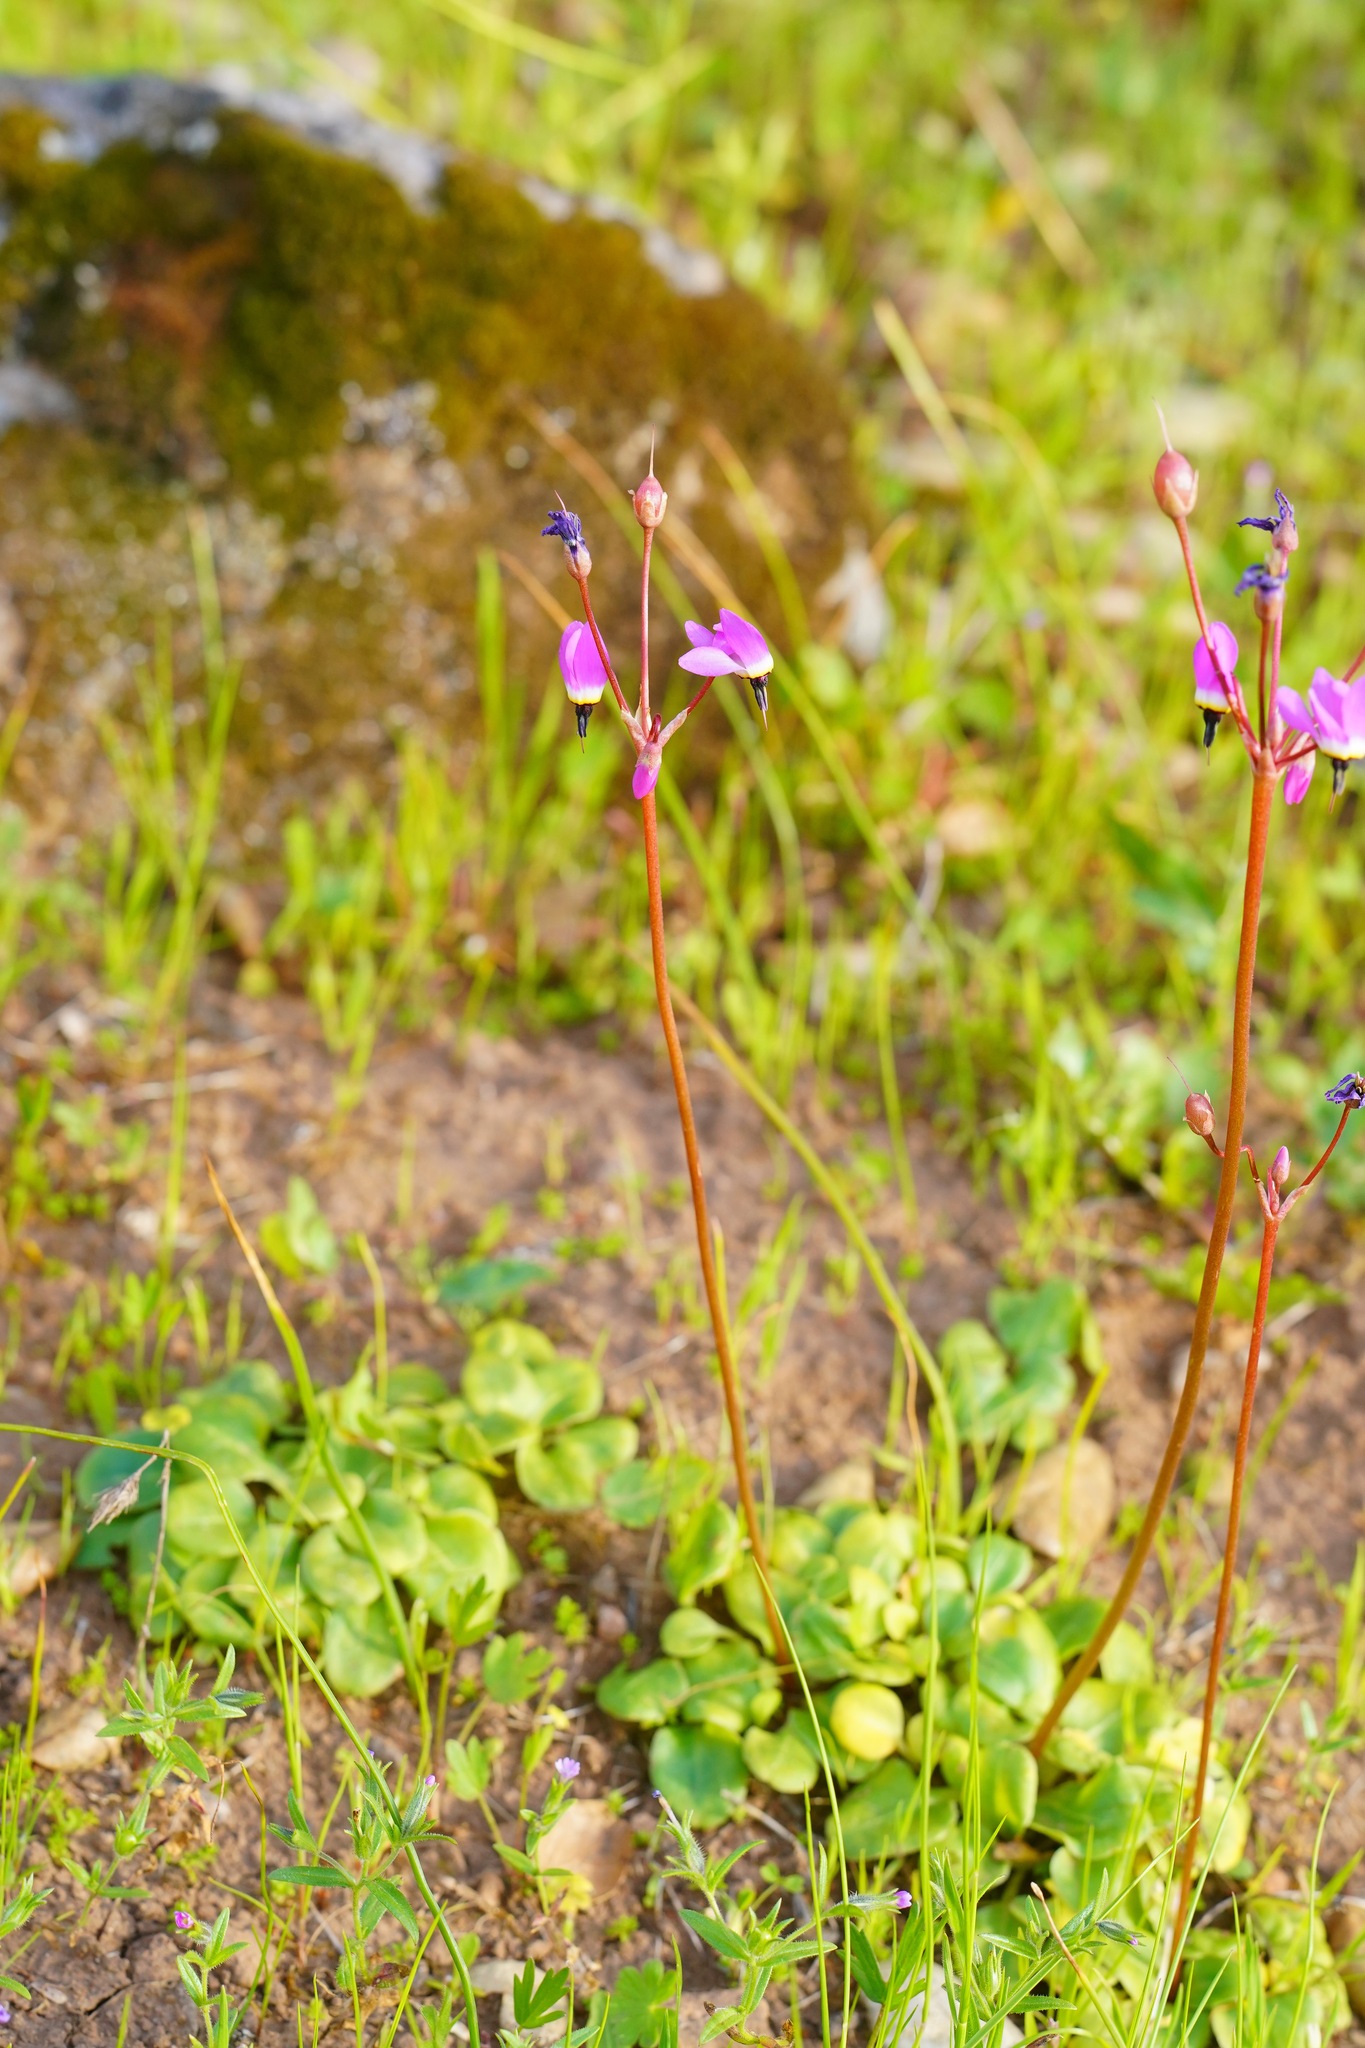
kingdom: Plantae
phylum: Tracheophyta
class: Magnoliopsida
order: Ericales
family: Primulaceae
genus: Dodecatheon
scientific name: Dodecatheon hendersonii
